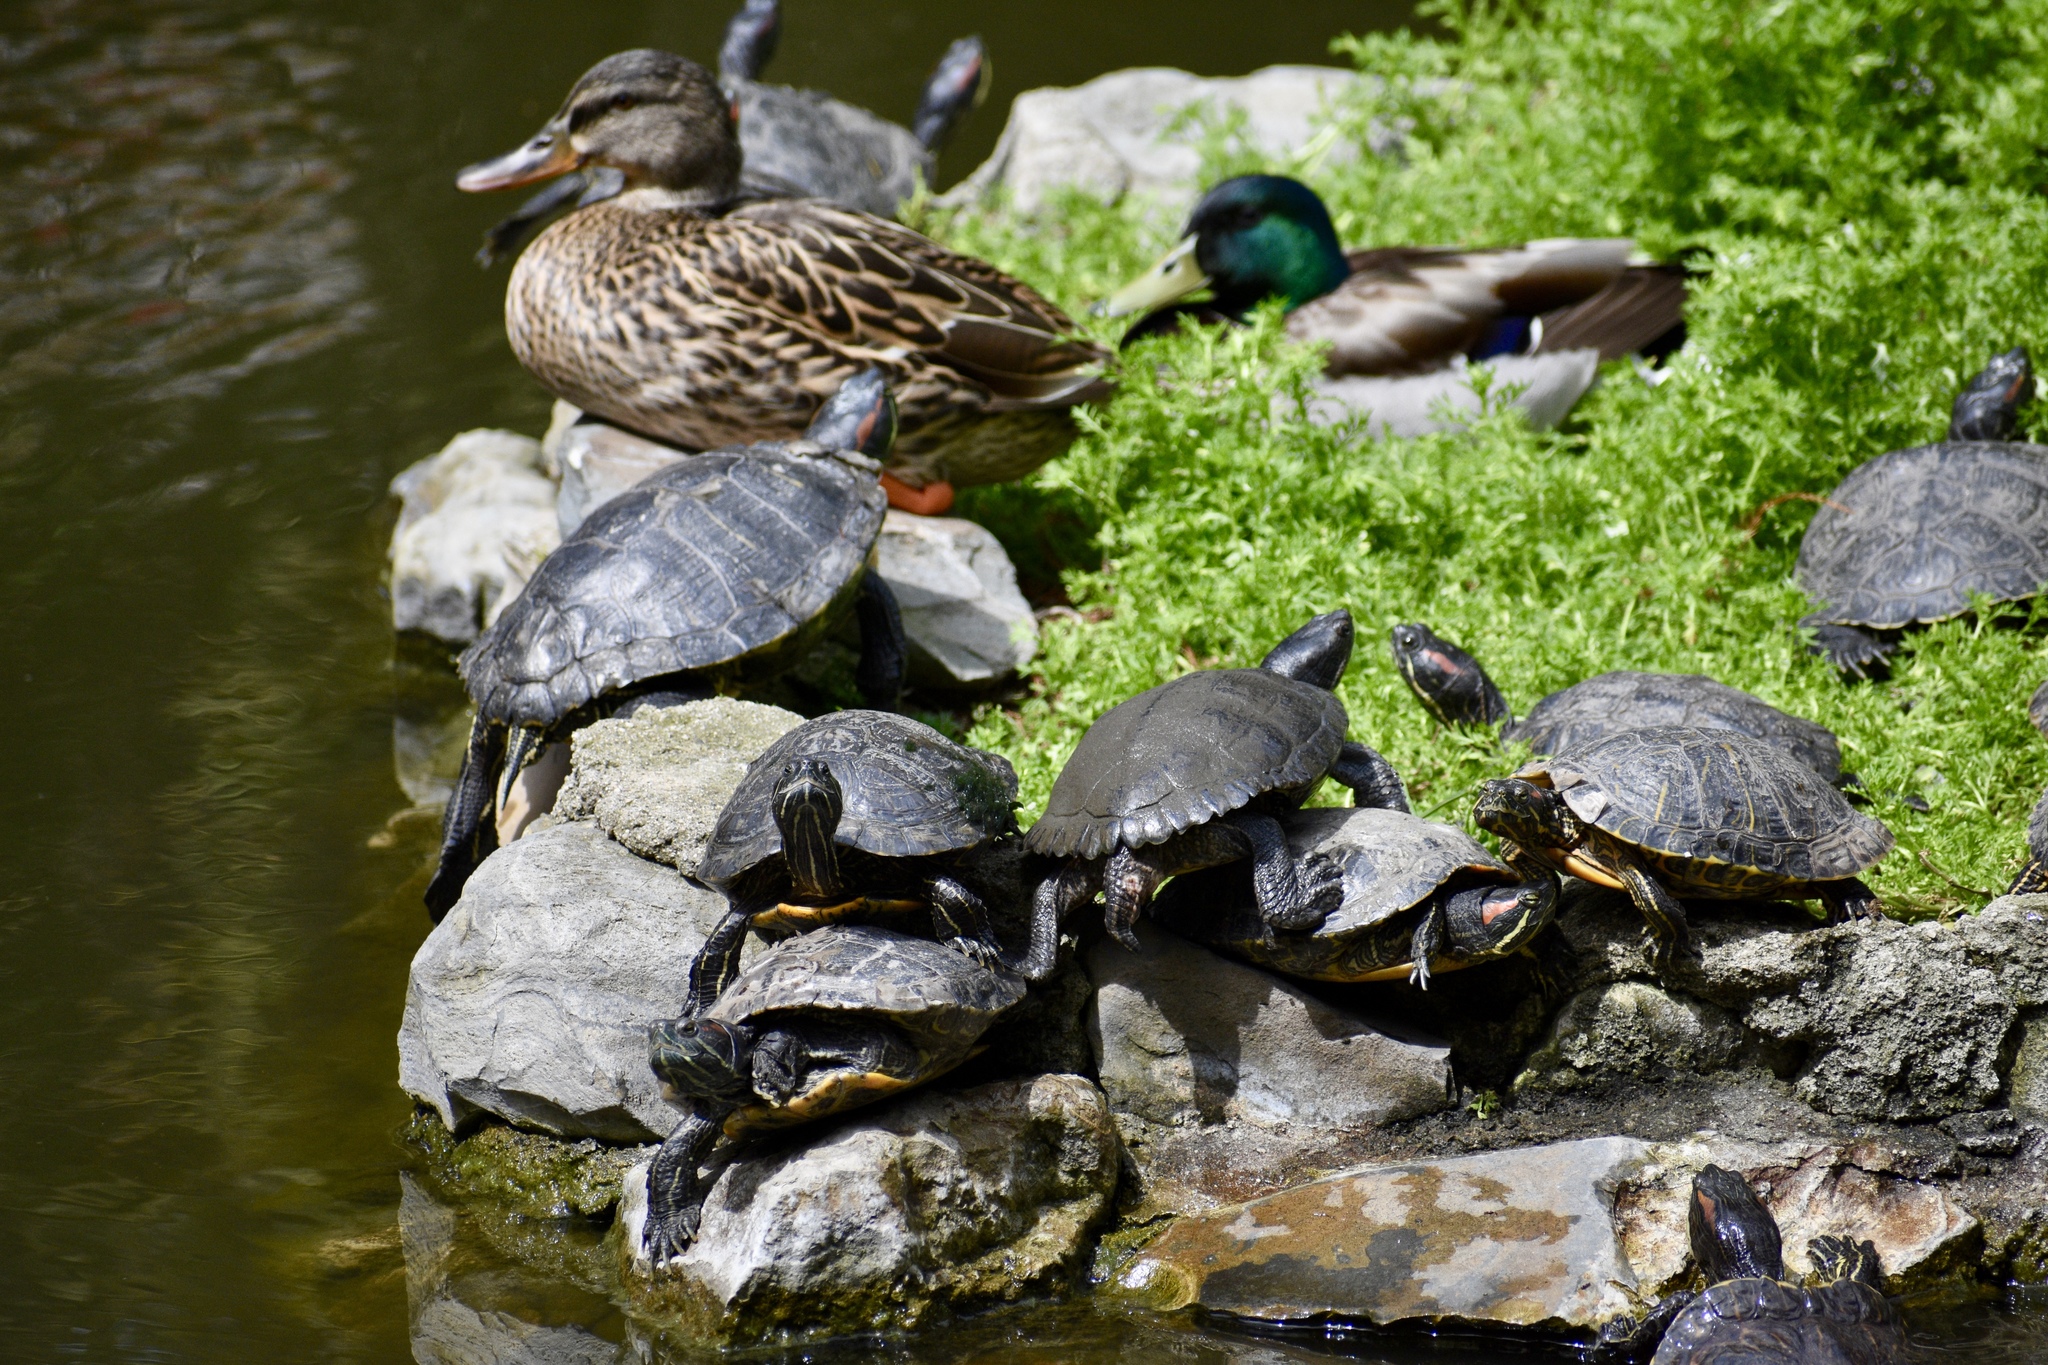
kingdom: Animalia
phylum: Chordata
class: Testudines
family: Emydidae
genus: Trachemys
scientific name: Trachemys scripta
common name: Slider
